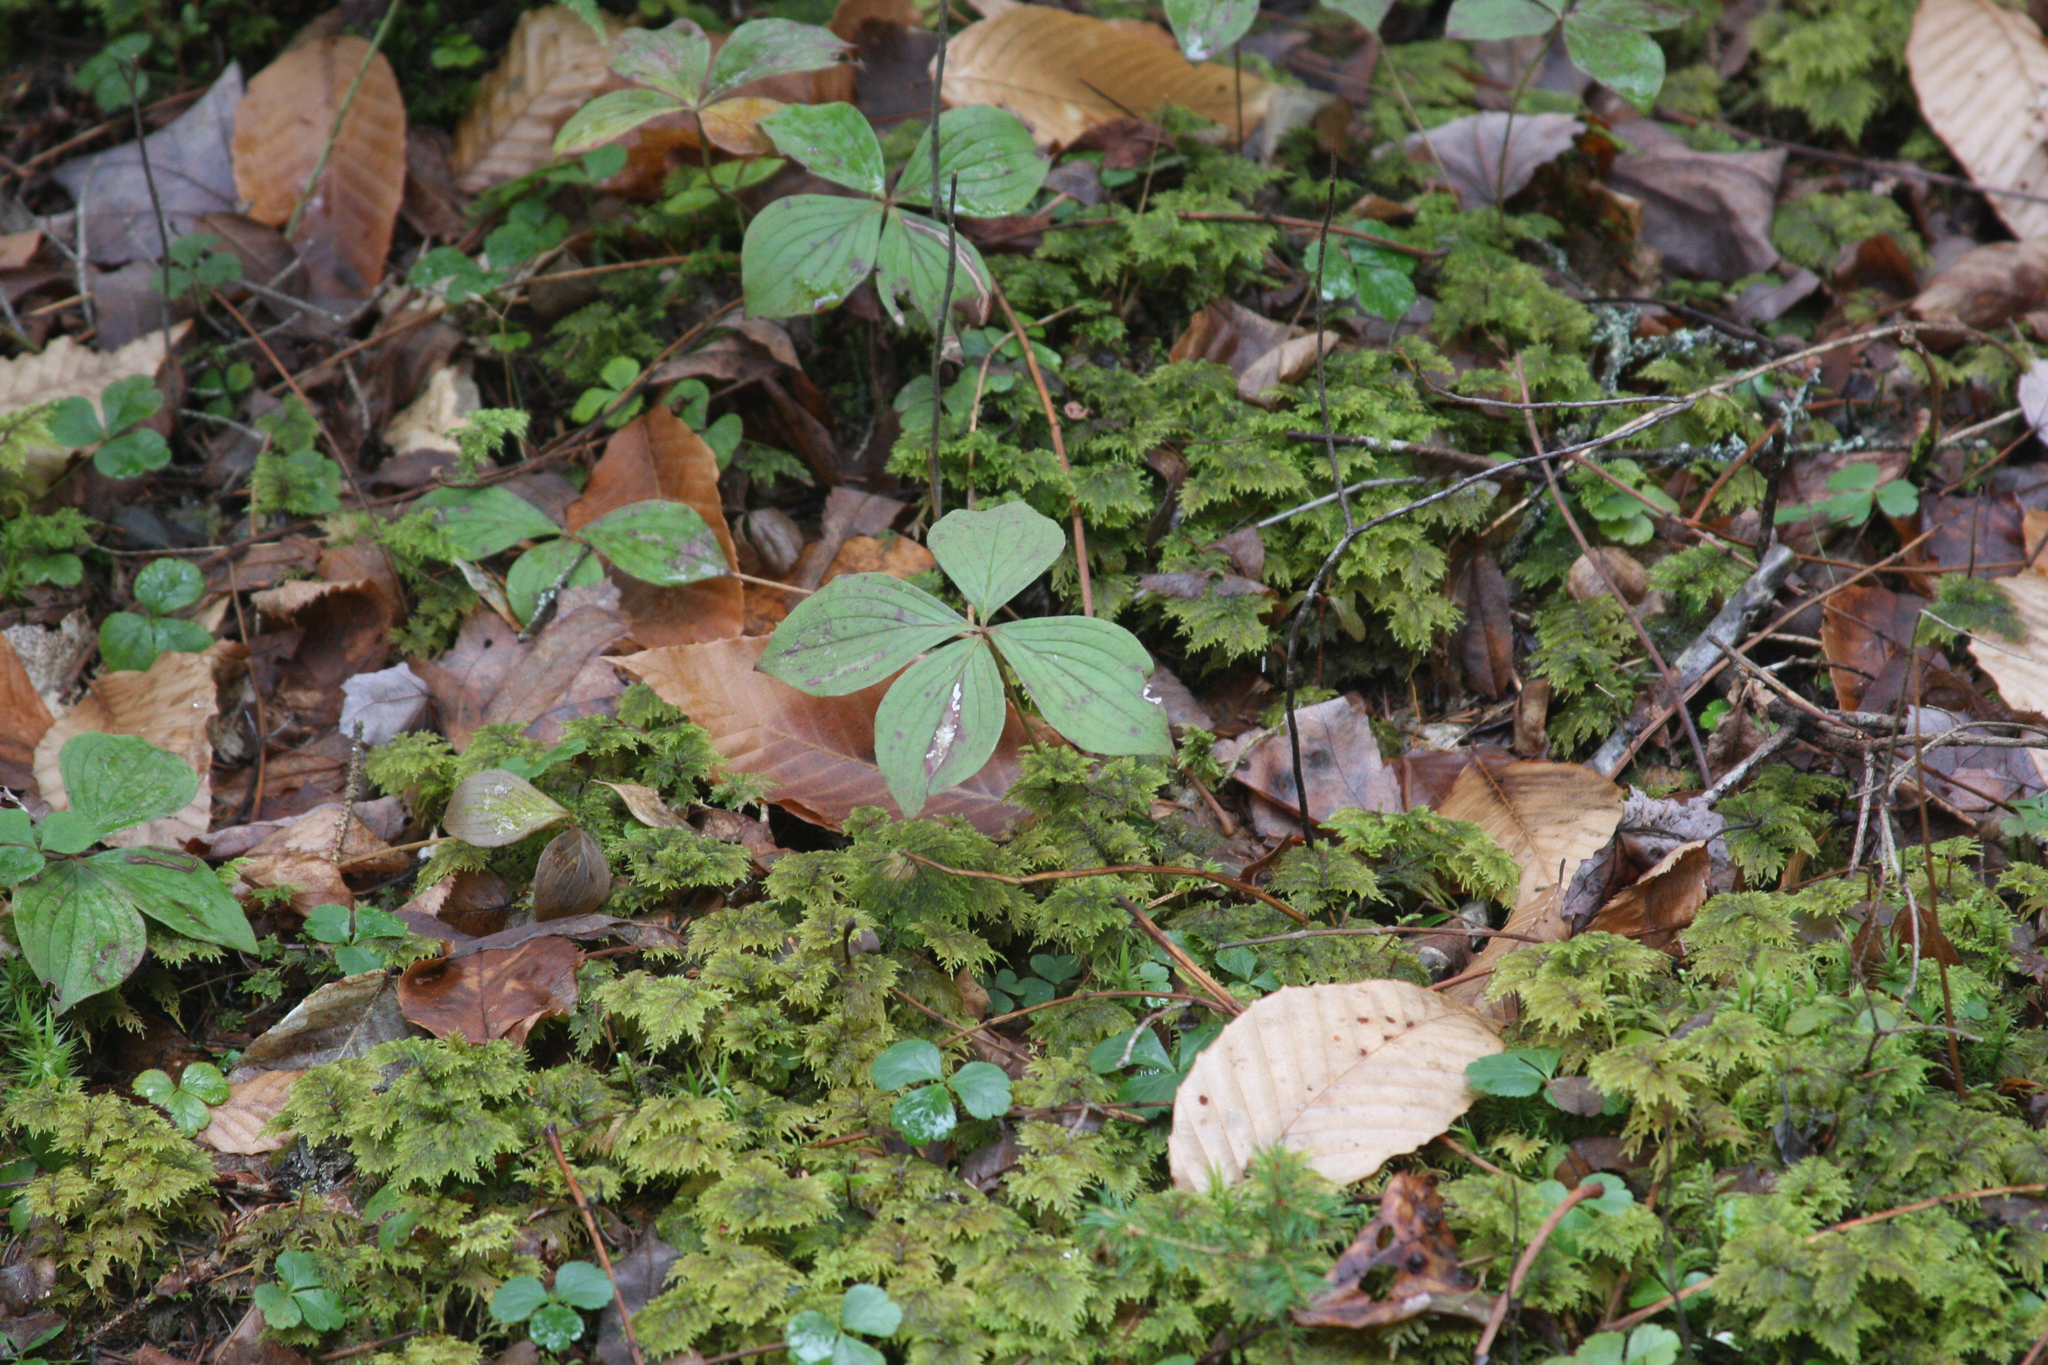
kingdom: Plantae
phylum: Tracheophyta
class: Magnoliopsida
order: Cornales
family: Cornaceae
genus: Cornus
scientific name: Cornus canadensis
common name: Creeping dogwood
